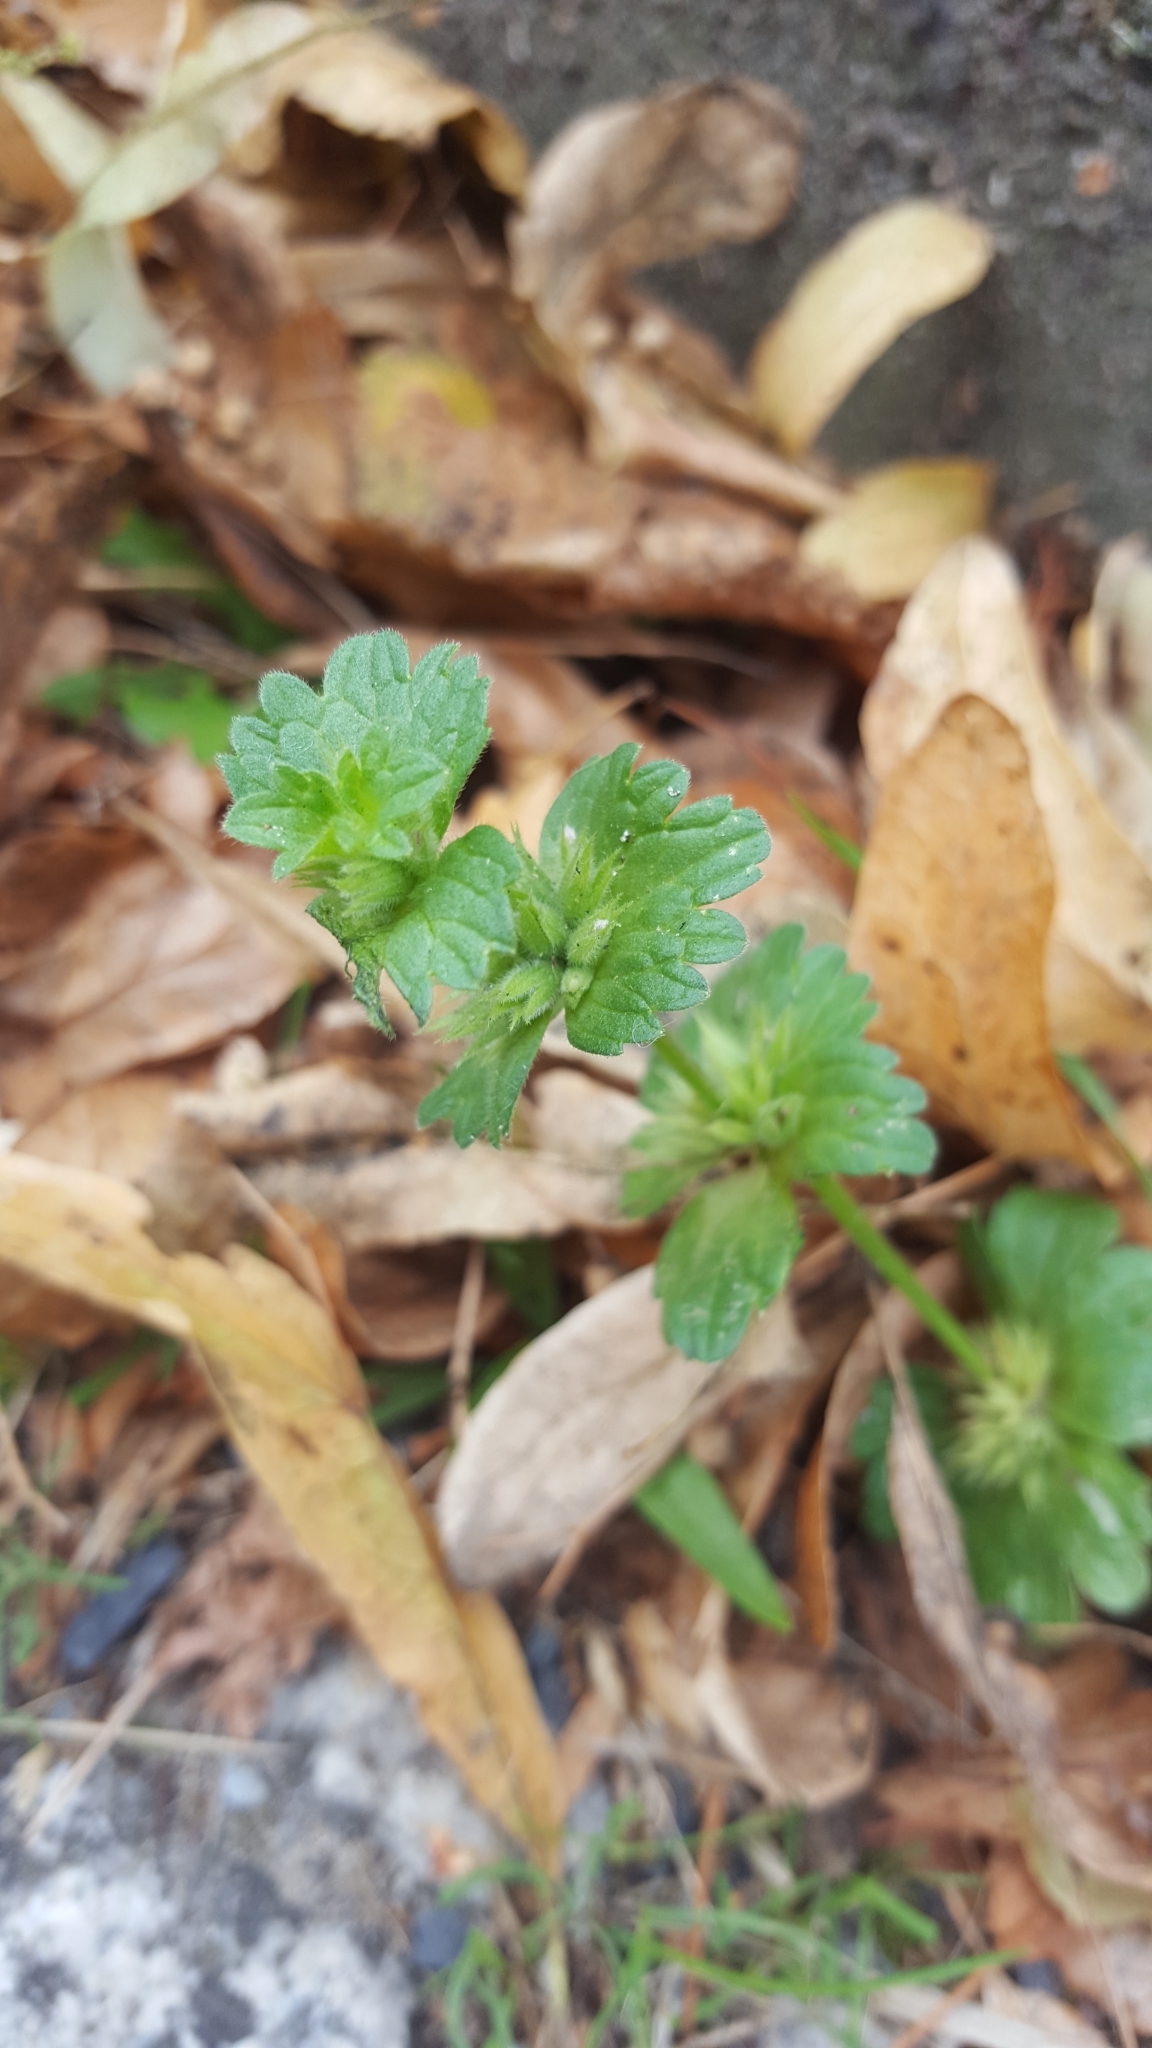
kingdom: Plantae
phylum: Tracheophyta
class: Magnoliopsida
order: Lamiales
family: Lamiaceae
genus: Lamium
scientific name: Lamium amplexicaule
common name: Henbit dead-nettle
